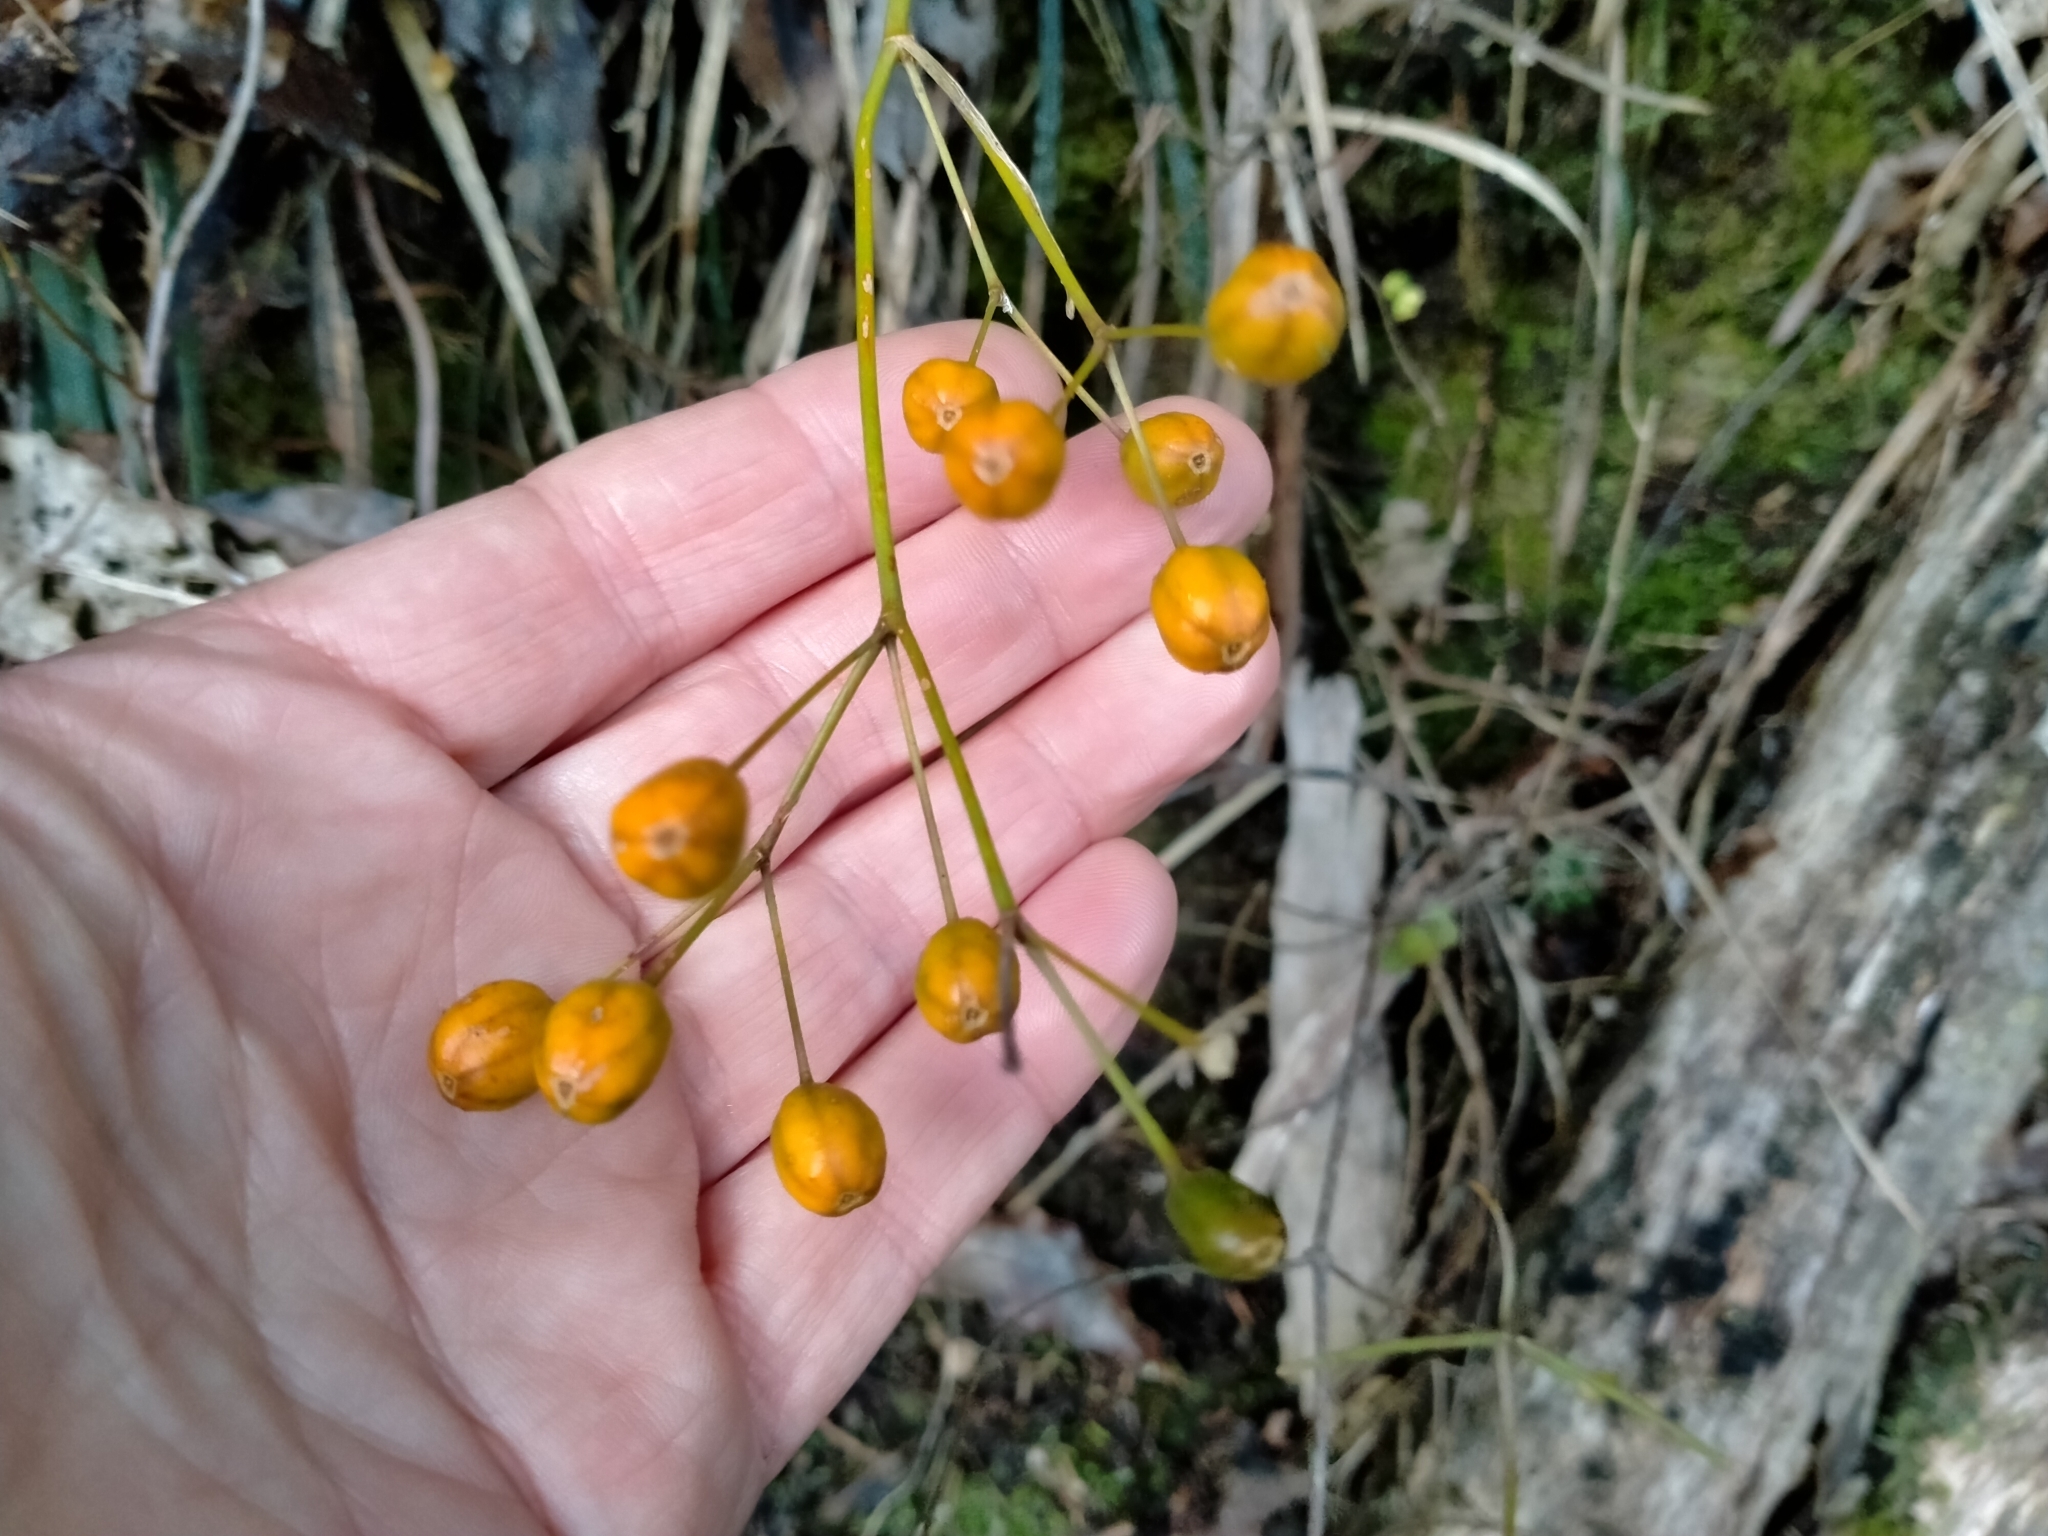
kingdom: Plantae
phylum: Tracheophyta
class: Liliopsida
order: Asparagales
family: Iridaceae
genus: Libertia
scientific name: Libertia ixioides
